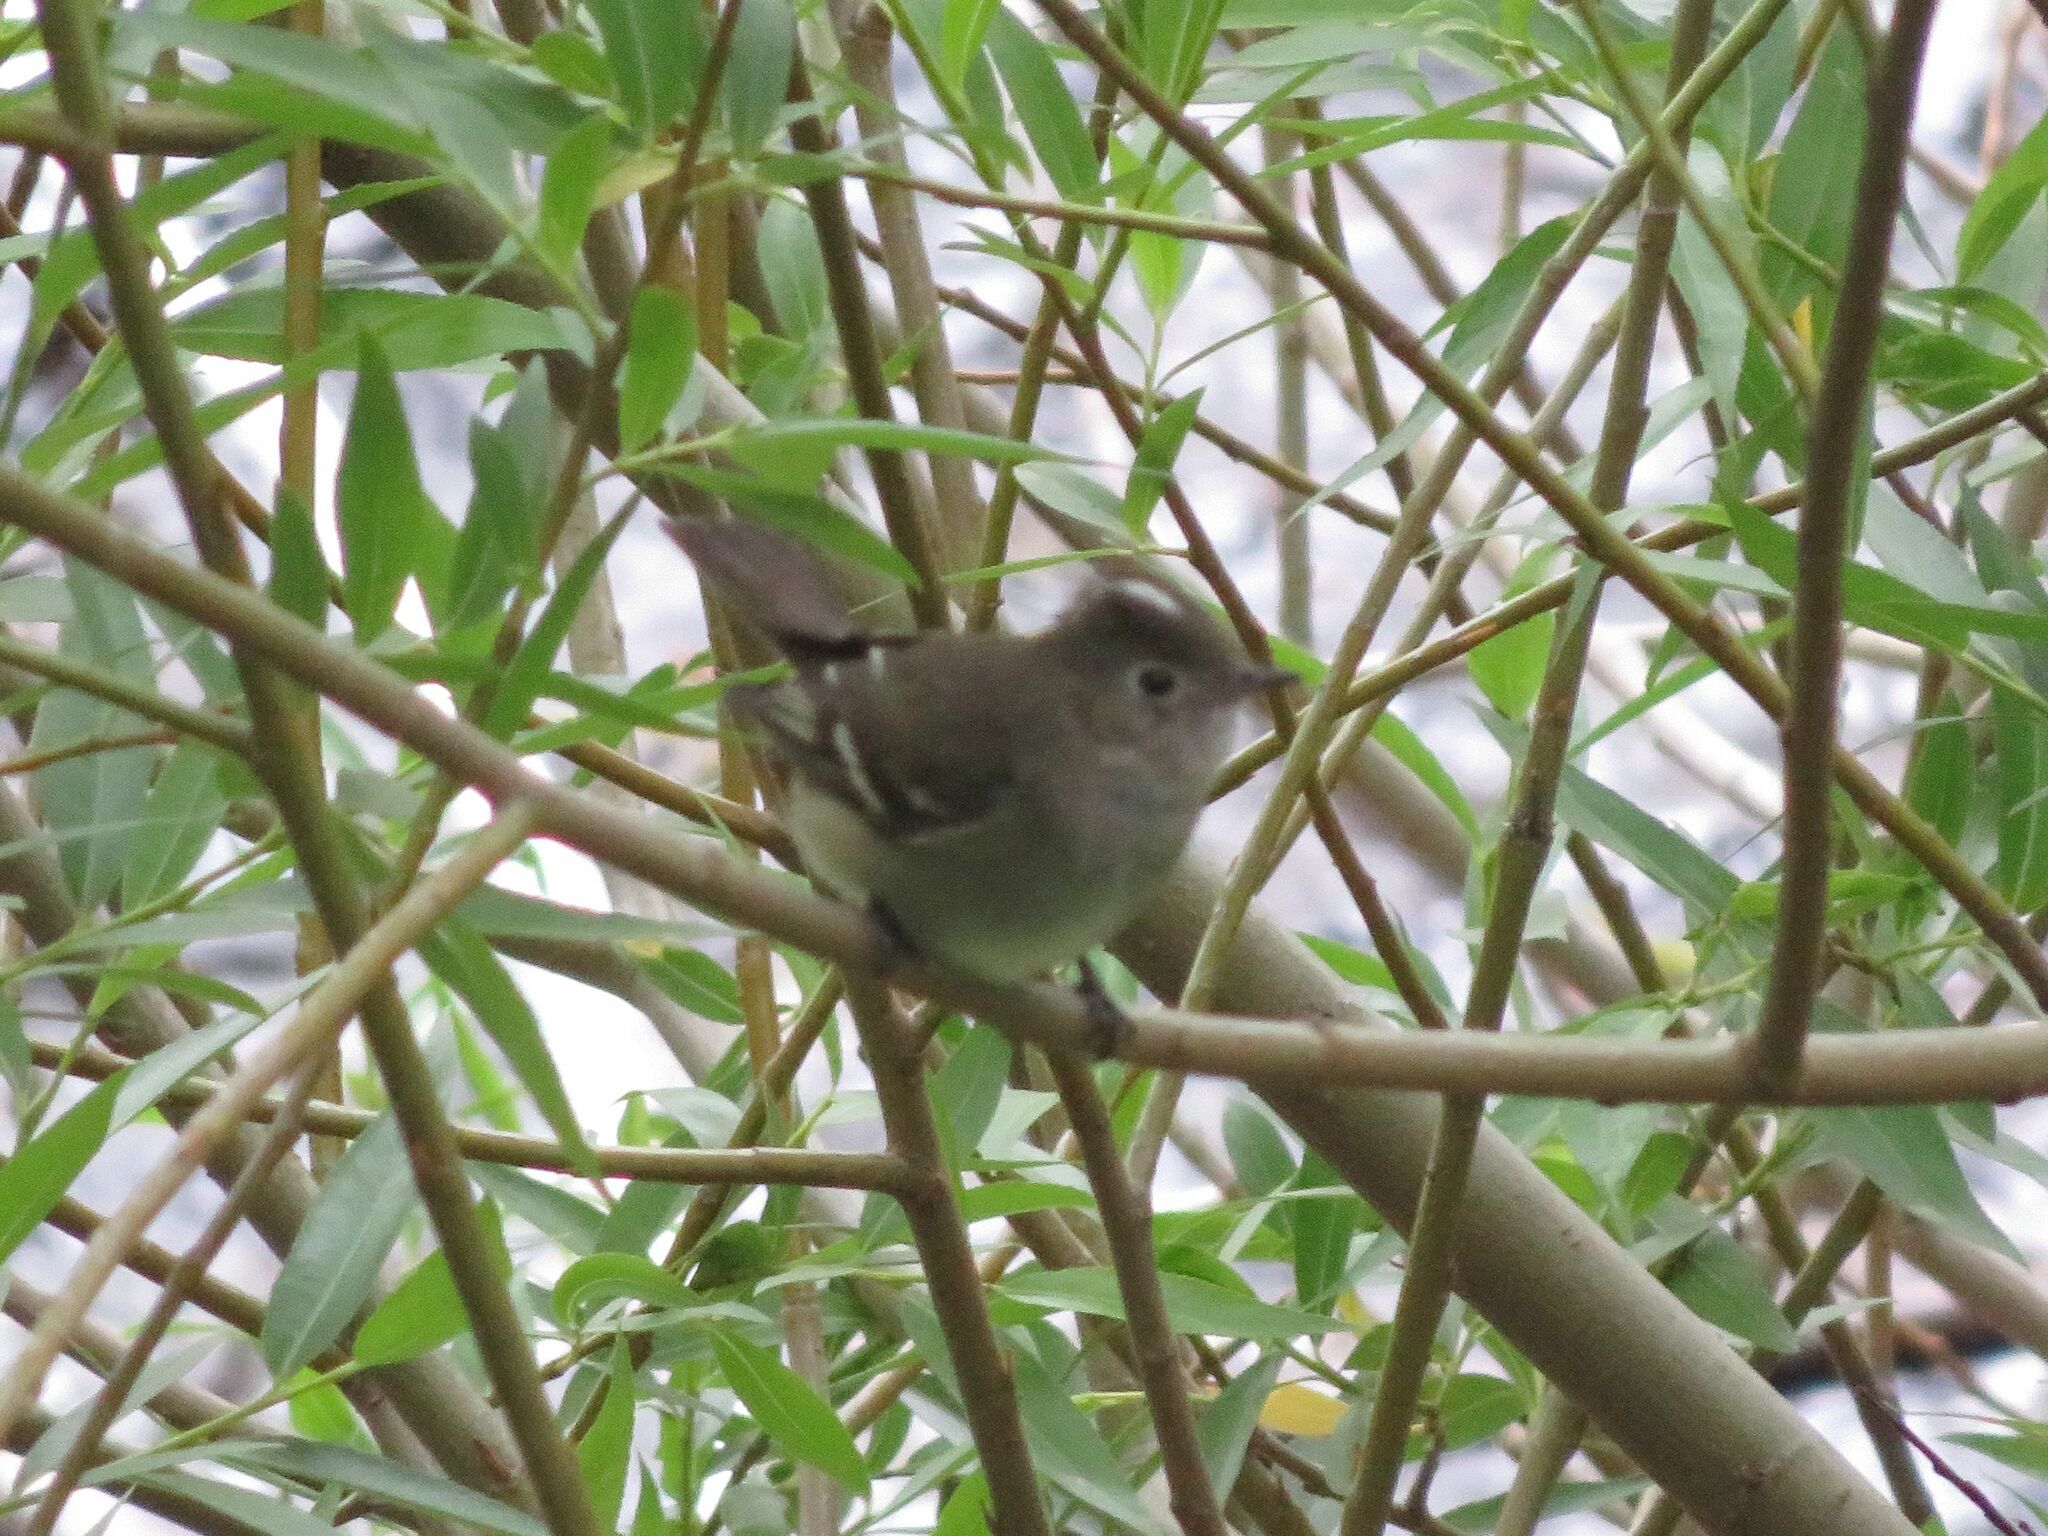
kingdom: Animalia
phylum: Chordata
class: Aves
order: Passeriformes
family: Tyrannidae
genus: Elaenia
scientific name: Elaenia albiceps
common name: White-crested elaenia
